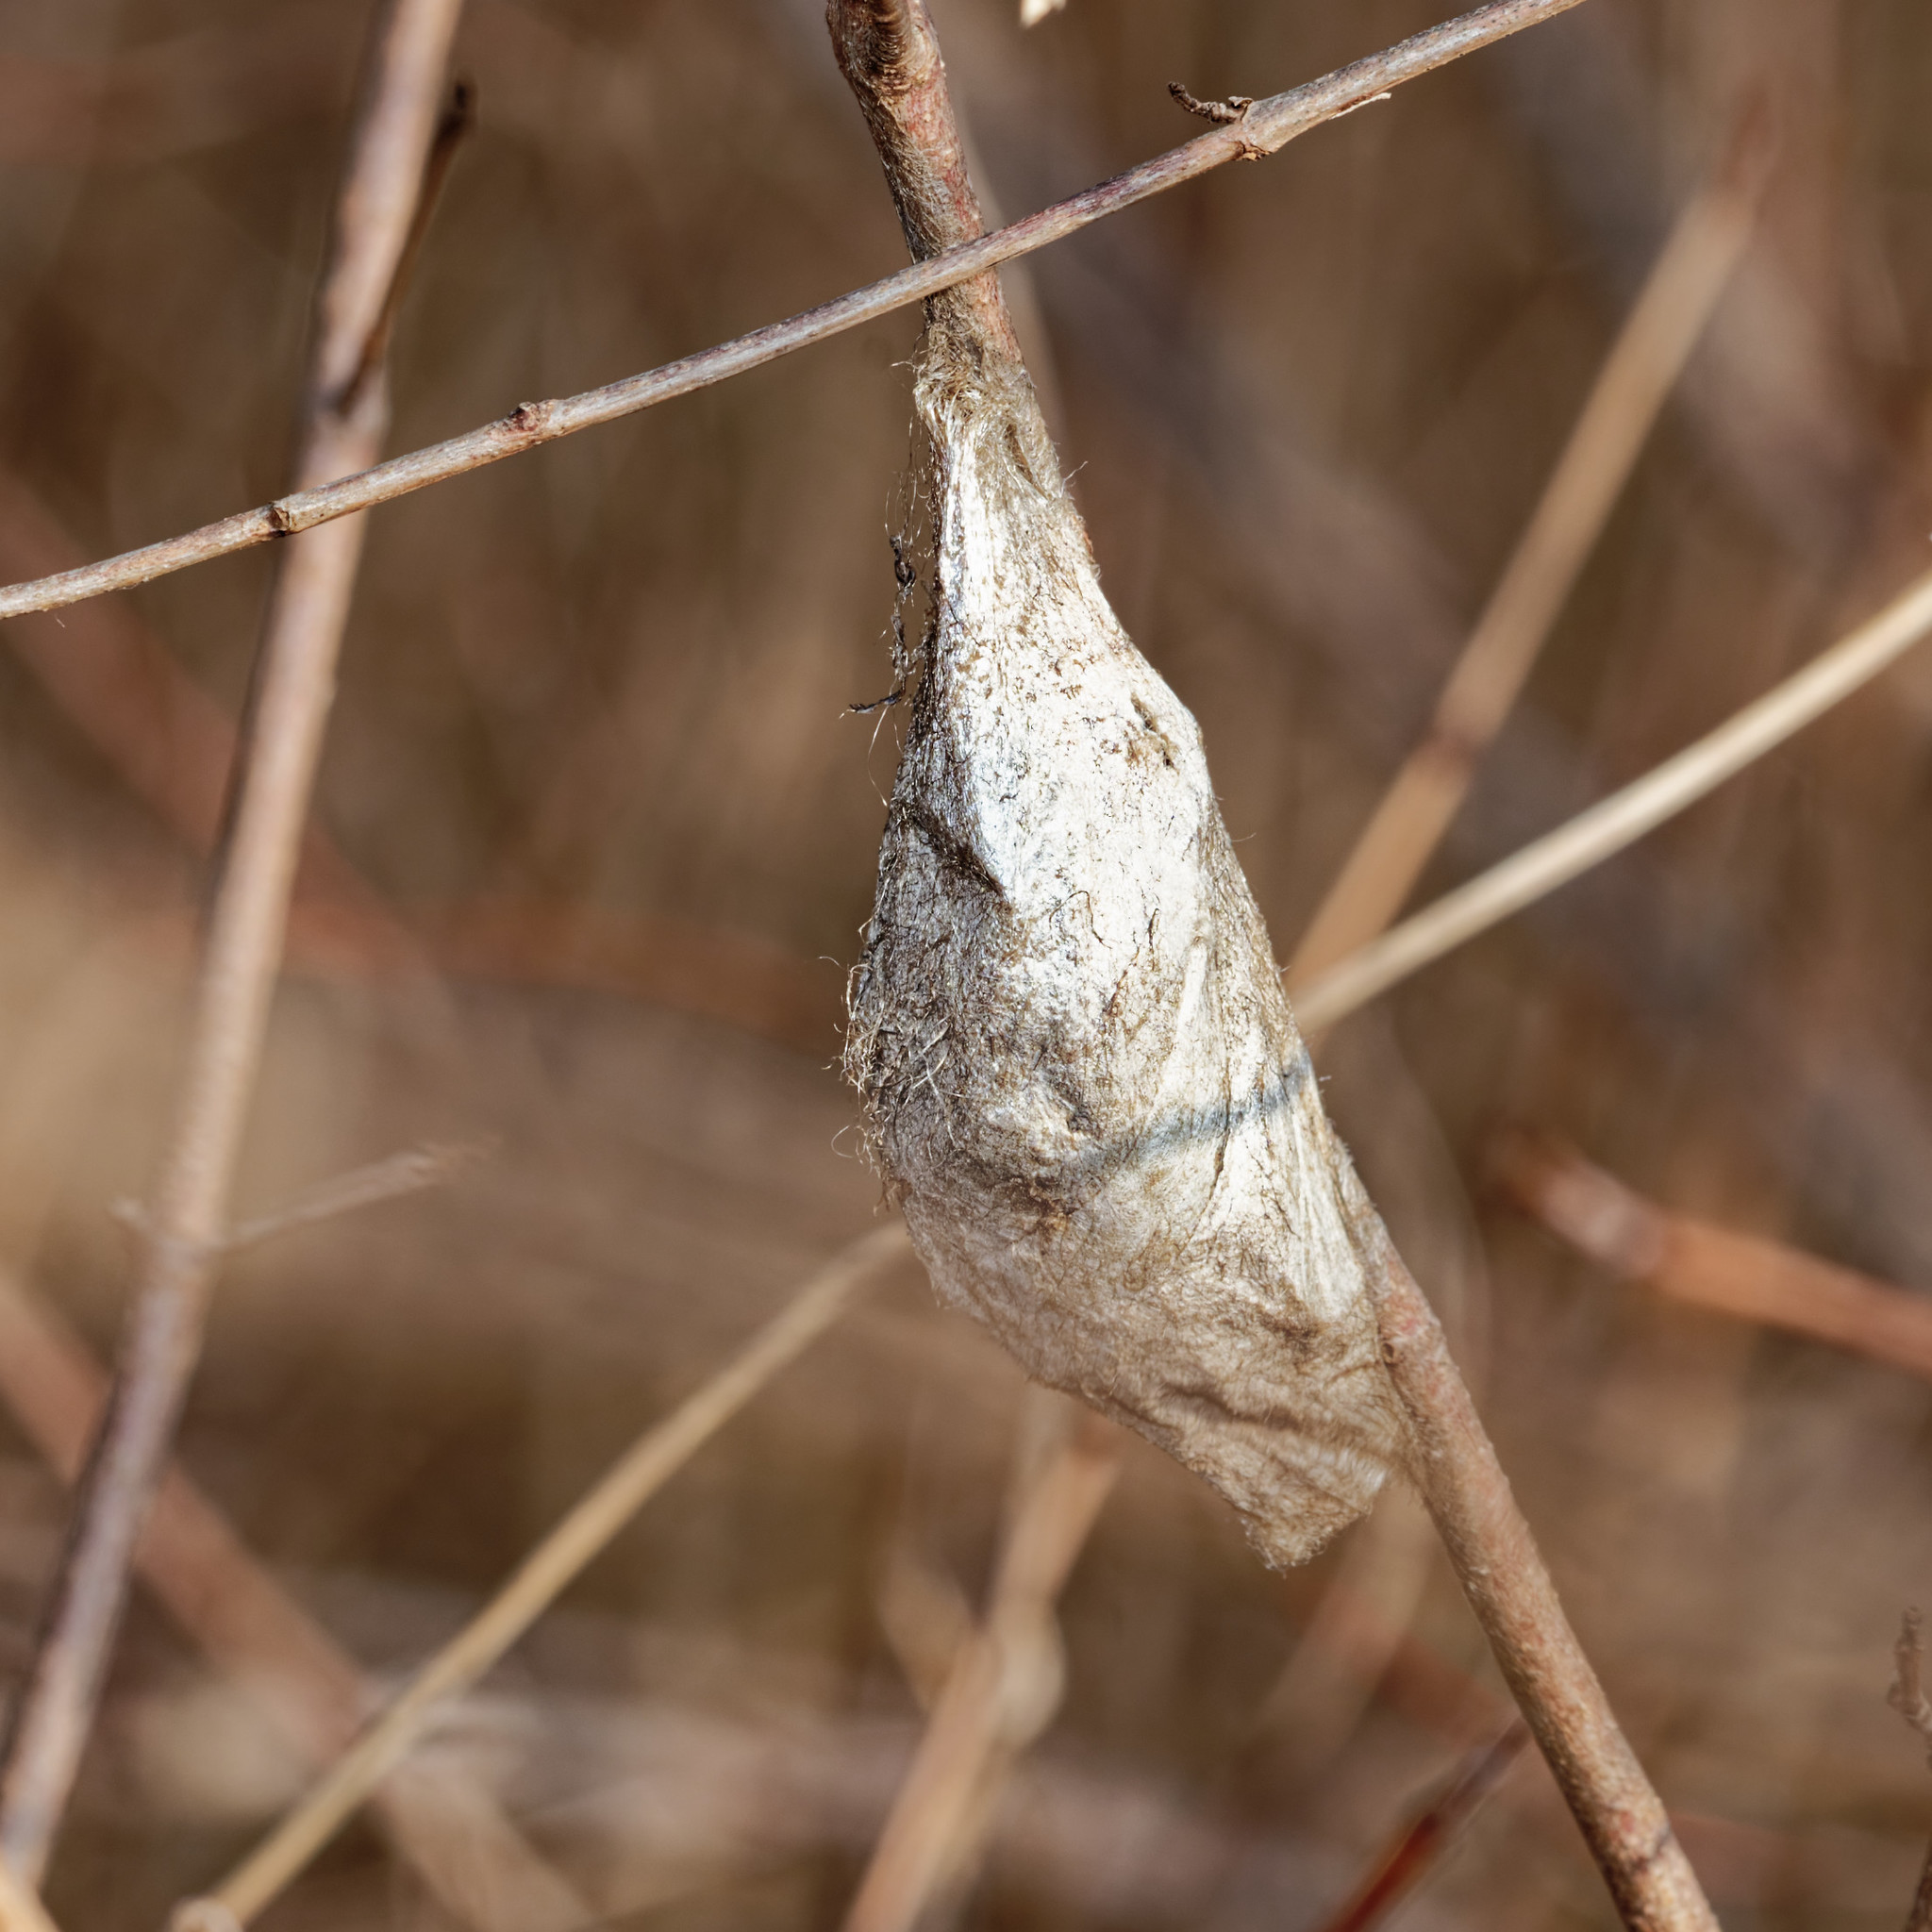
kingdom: Animalia
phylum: Arthropoda
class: Insecta
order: Lepidoptera
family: Saturniidae
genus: Hyalophora
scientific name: Hyalophora cecropia
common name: Cecropia silkmoth
